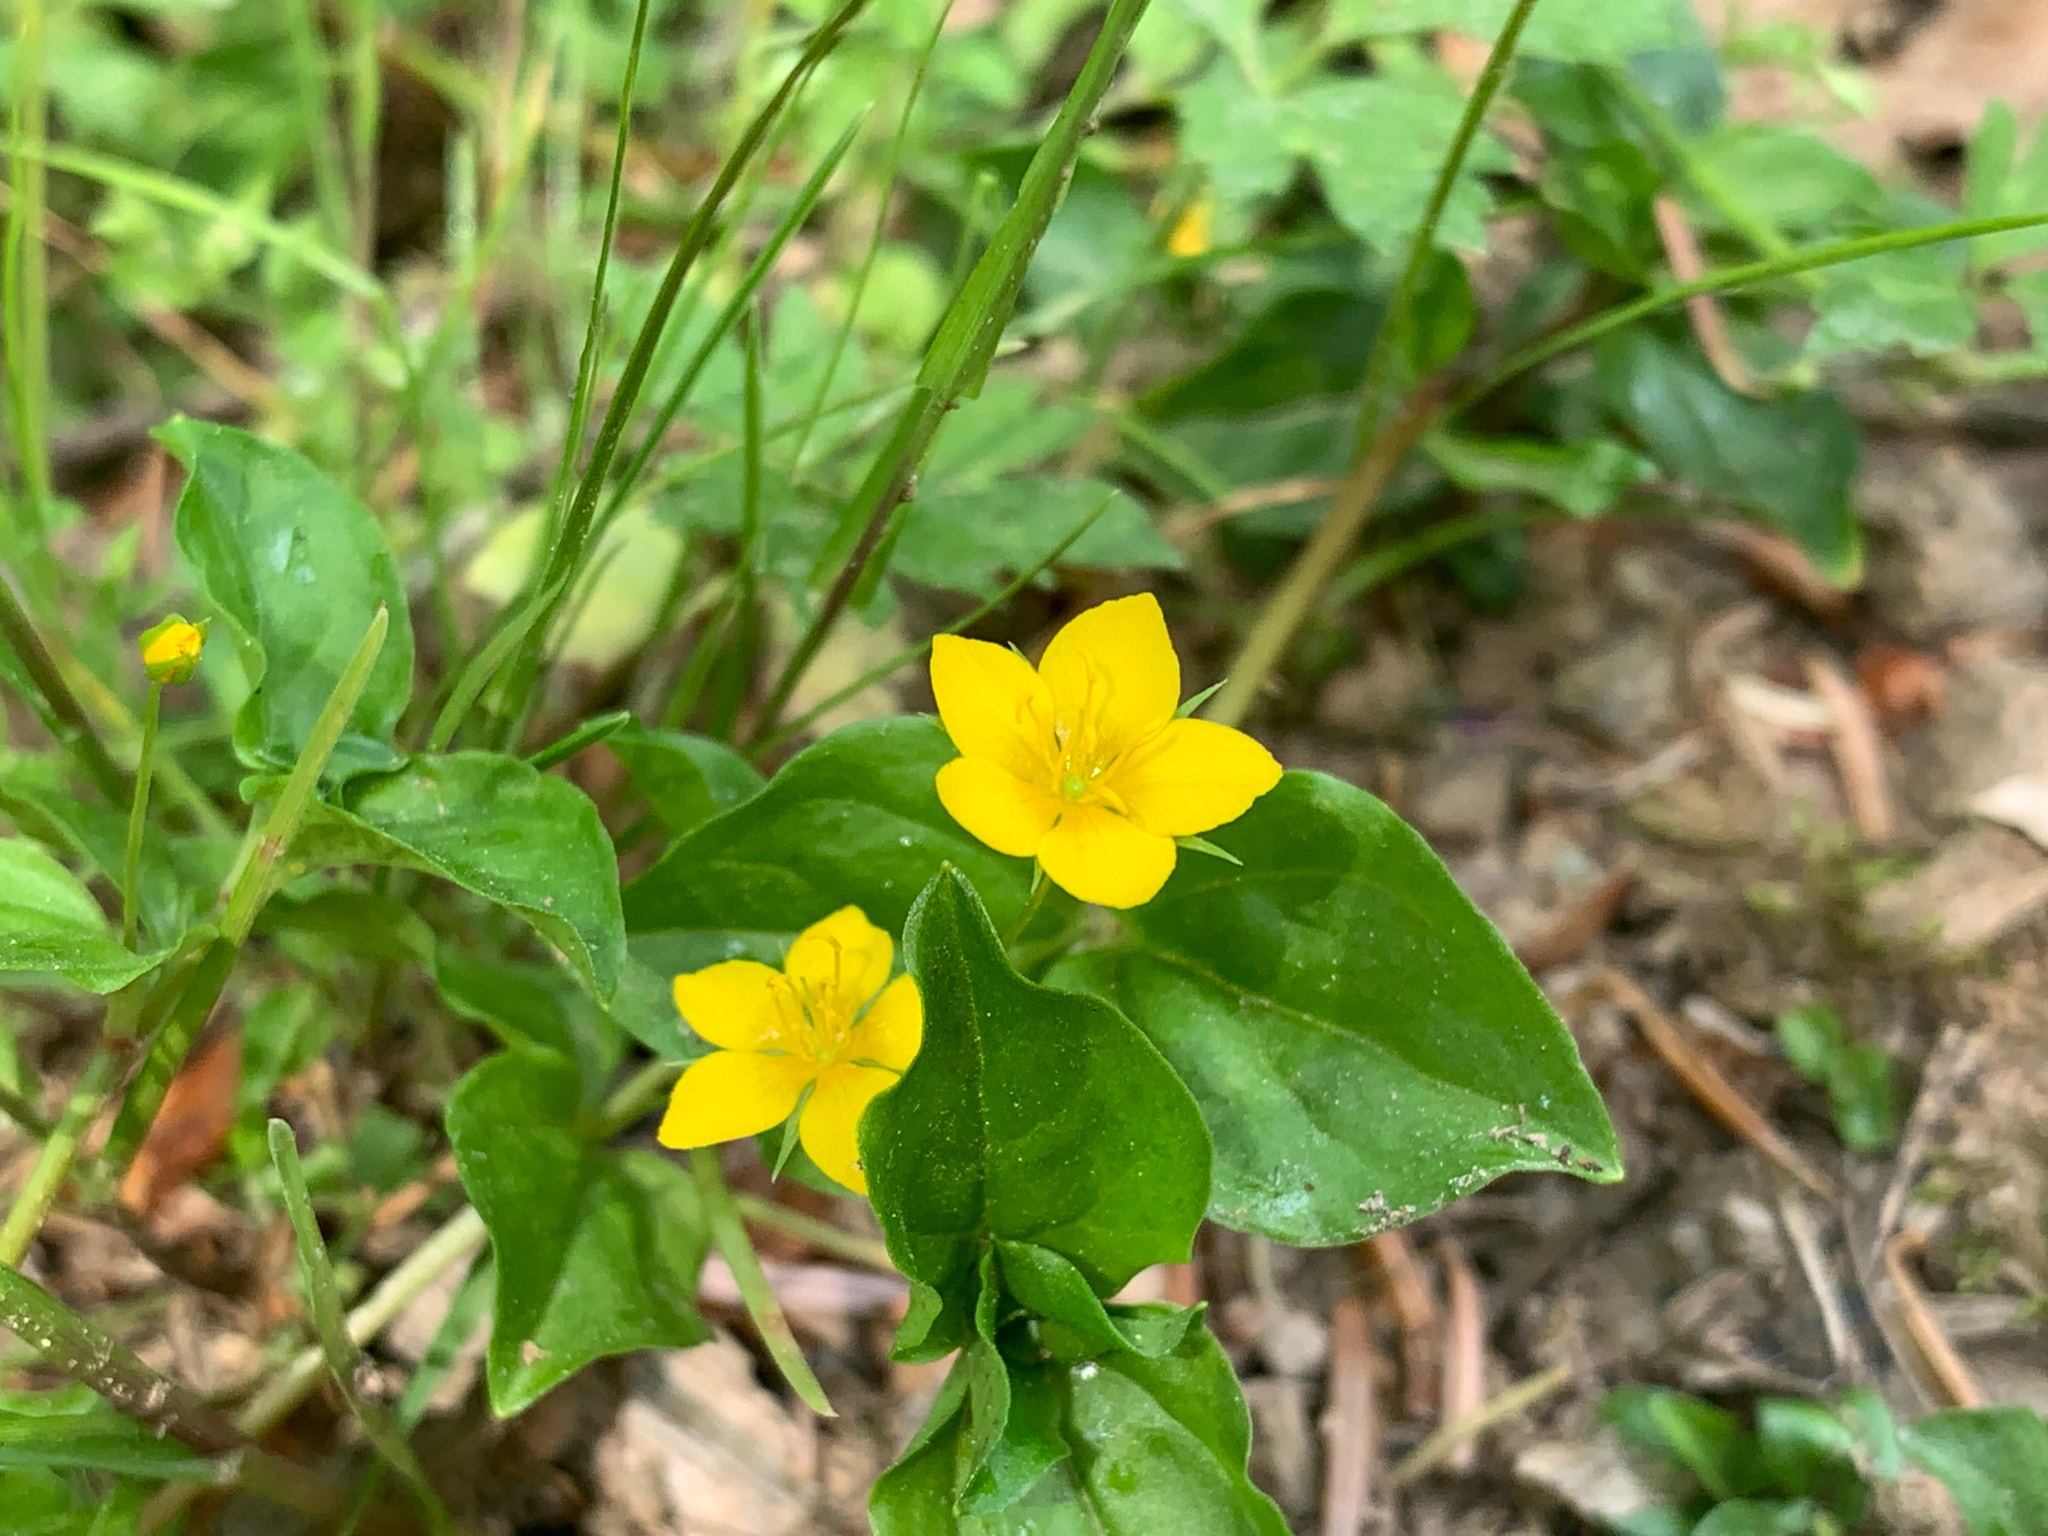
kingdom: Plantae
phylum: Tracheophyta
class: Magnoliopsida
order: Ericales
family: Primulaceae
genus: Lysimachia
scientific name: Lysimachia nemorum
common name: Yellow pimpernel
